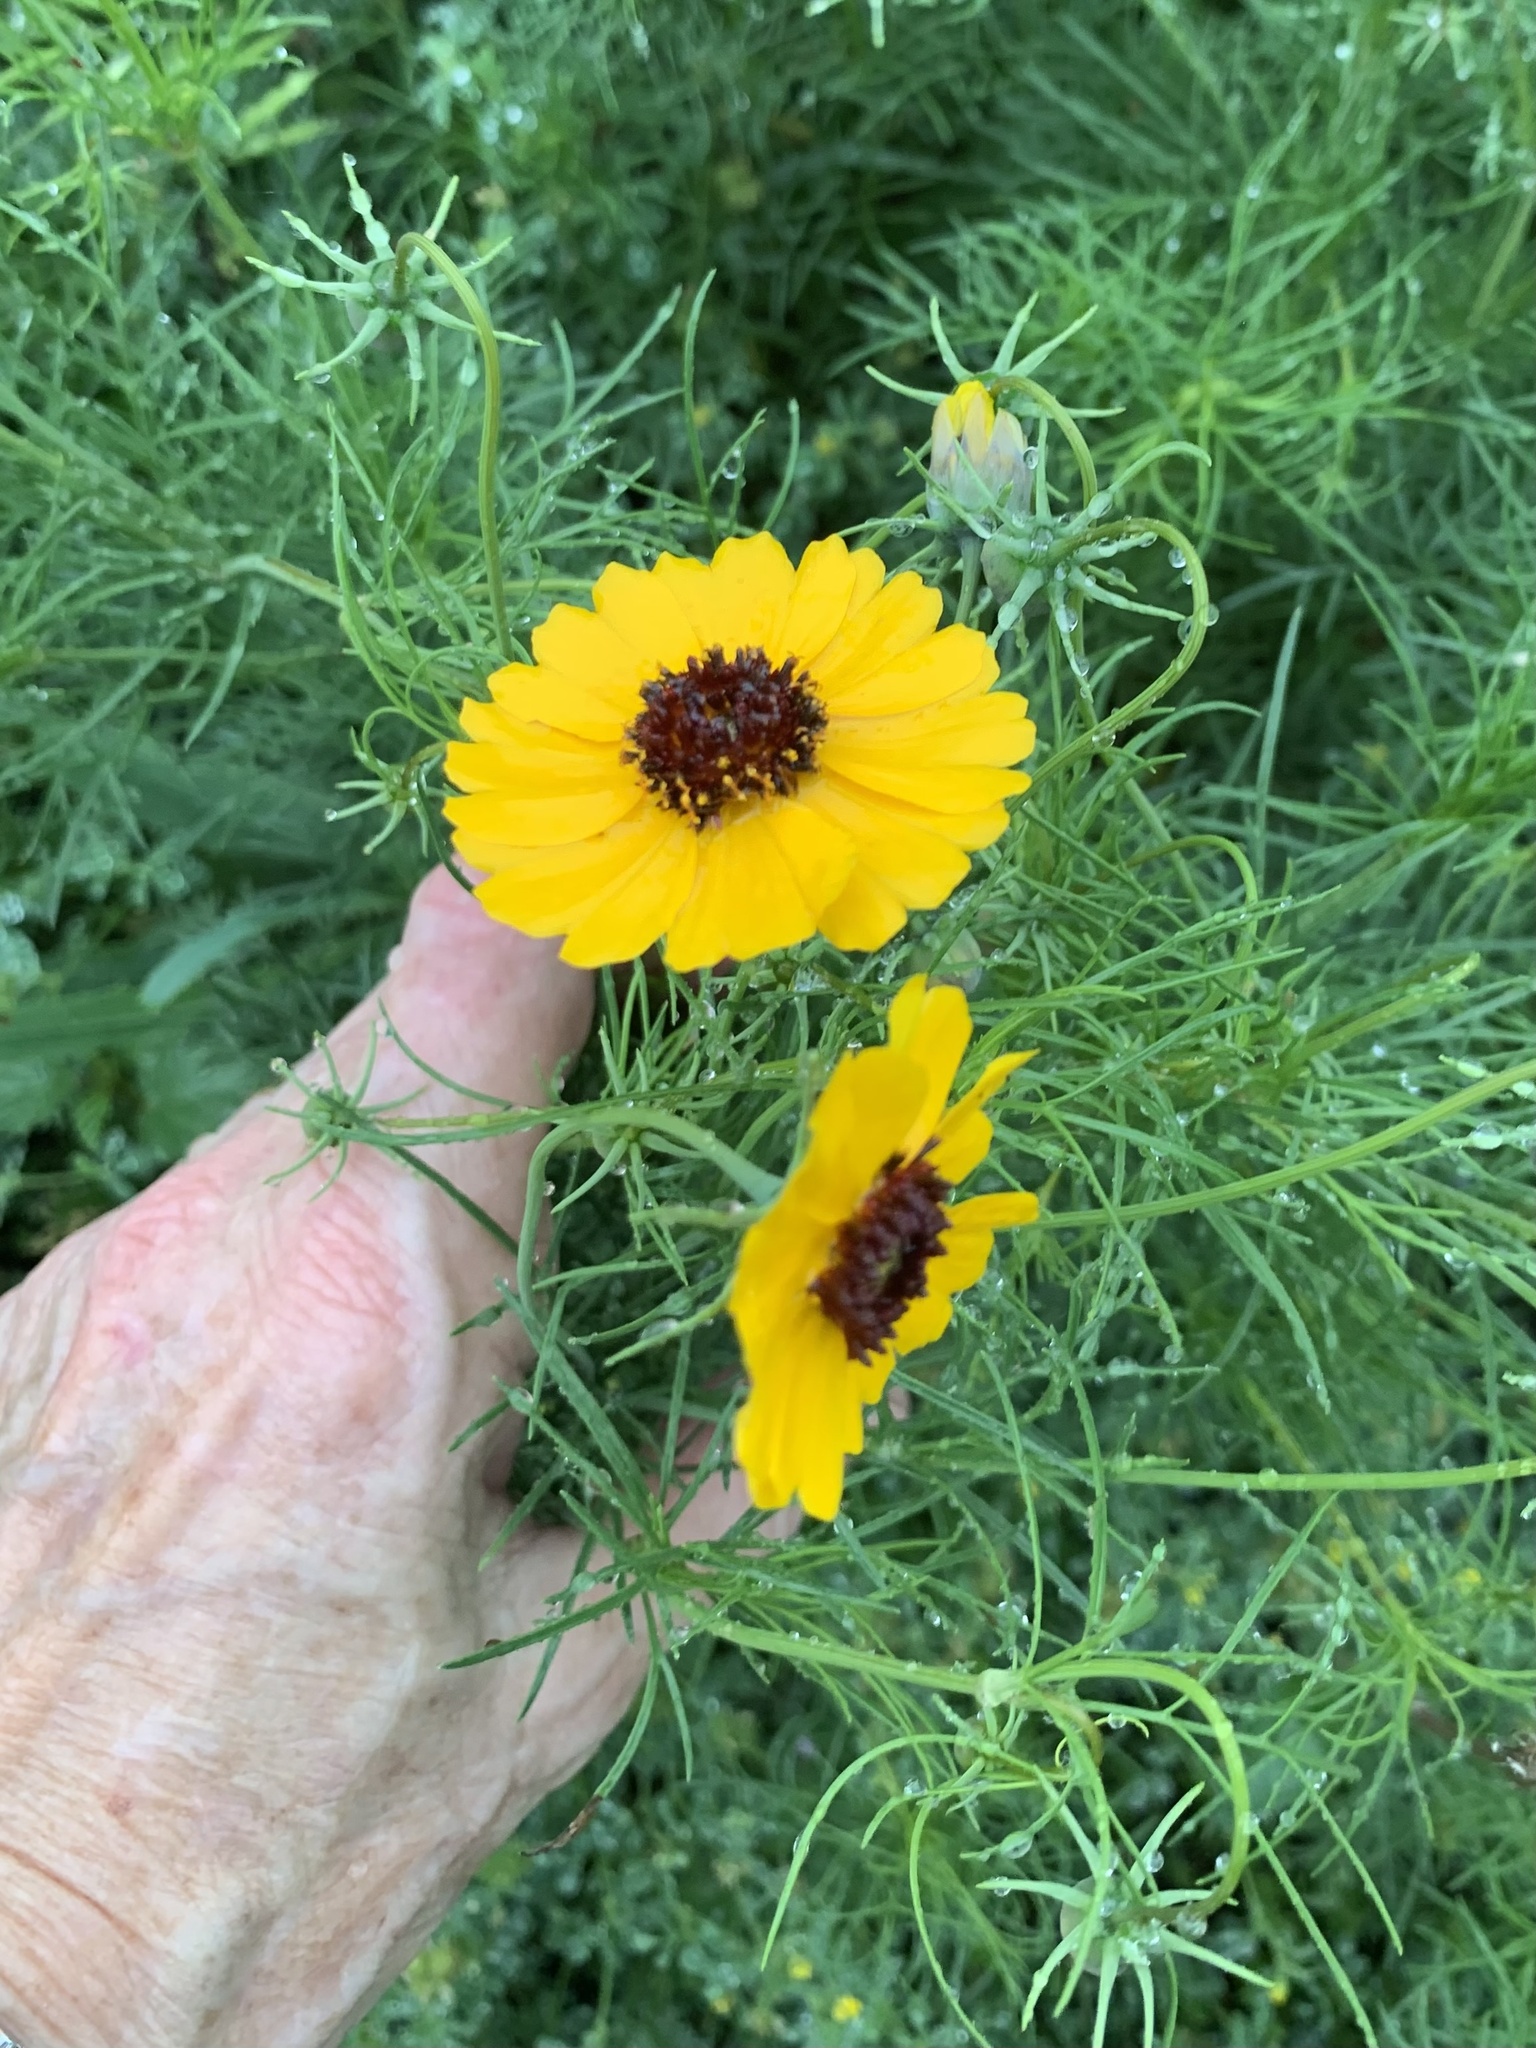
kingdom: Plantae
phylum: Tracheophyta
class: Magnoliopsida
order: Asterales
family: Asteraceae
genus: Thelesperma
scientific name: Thelesperma filifolium
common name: Stiff greenthread
